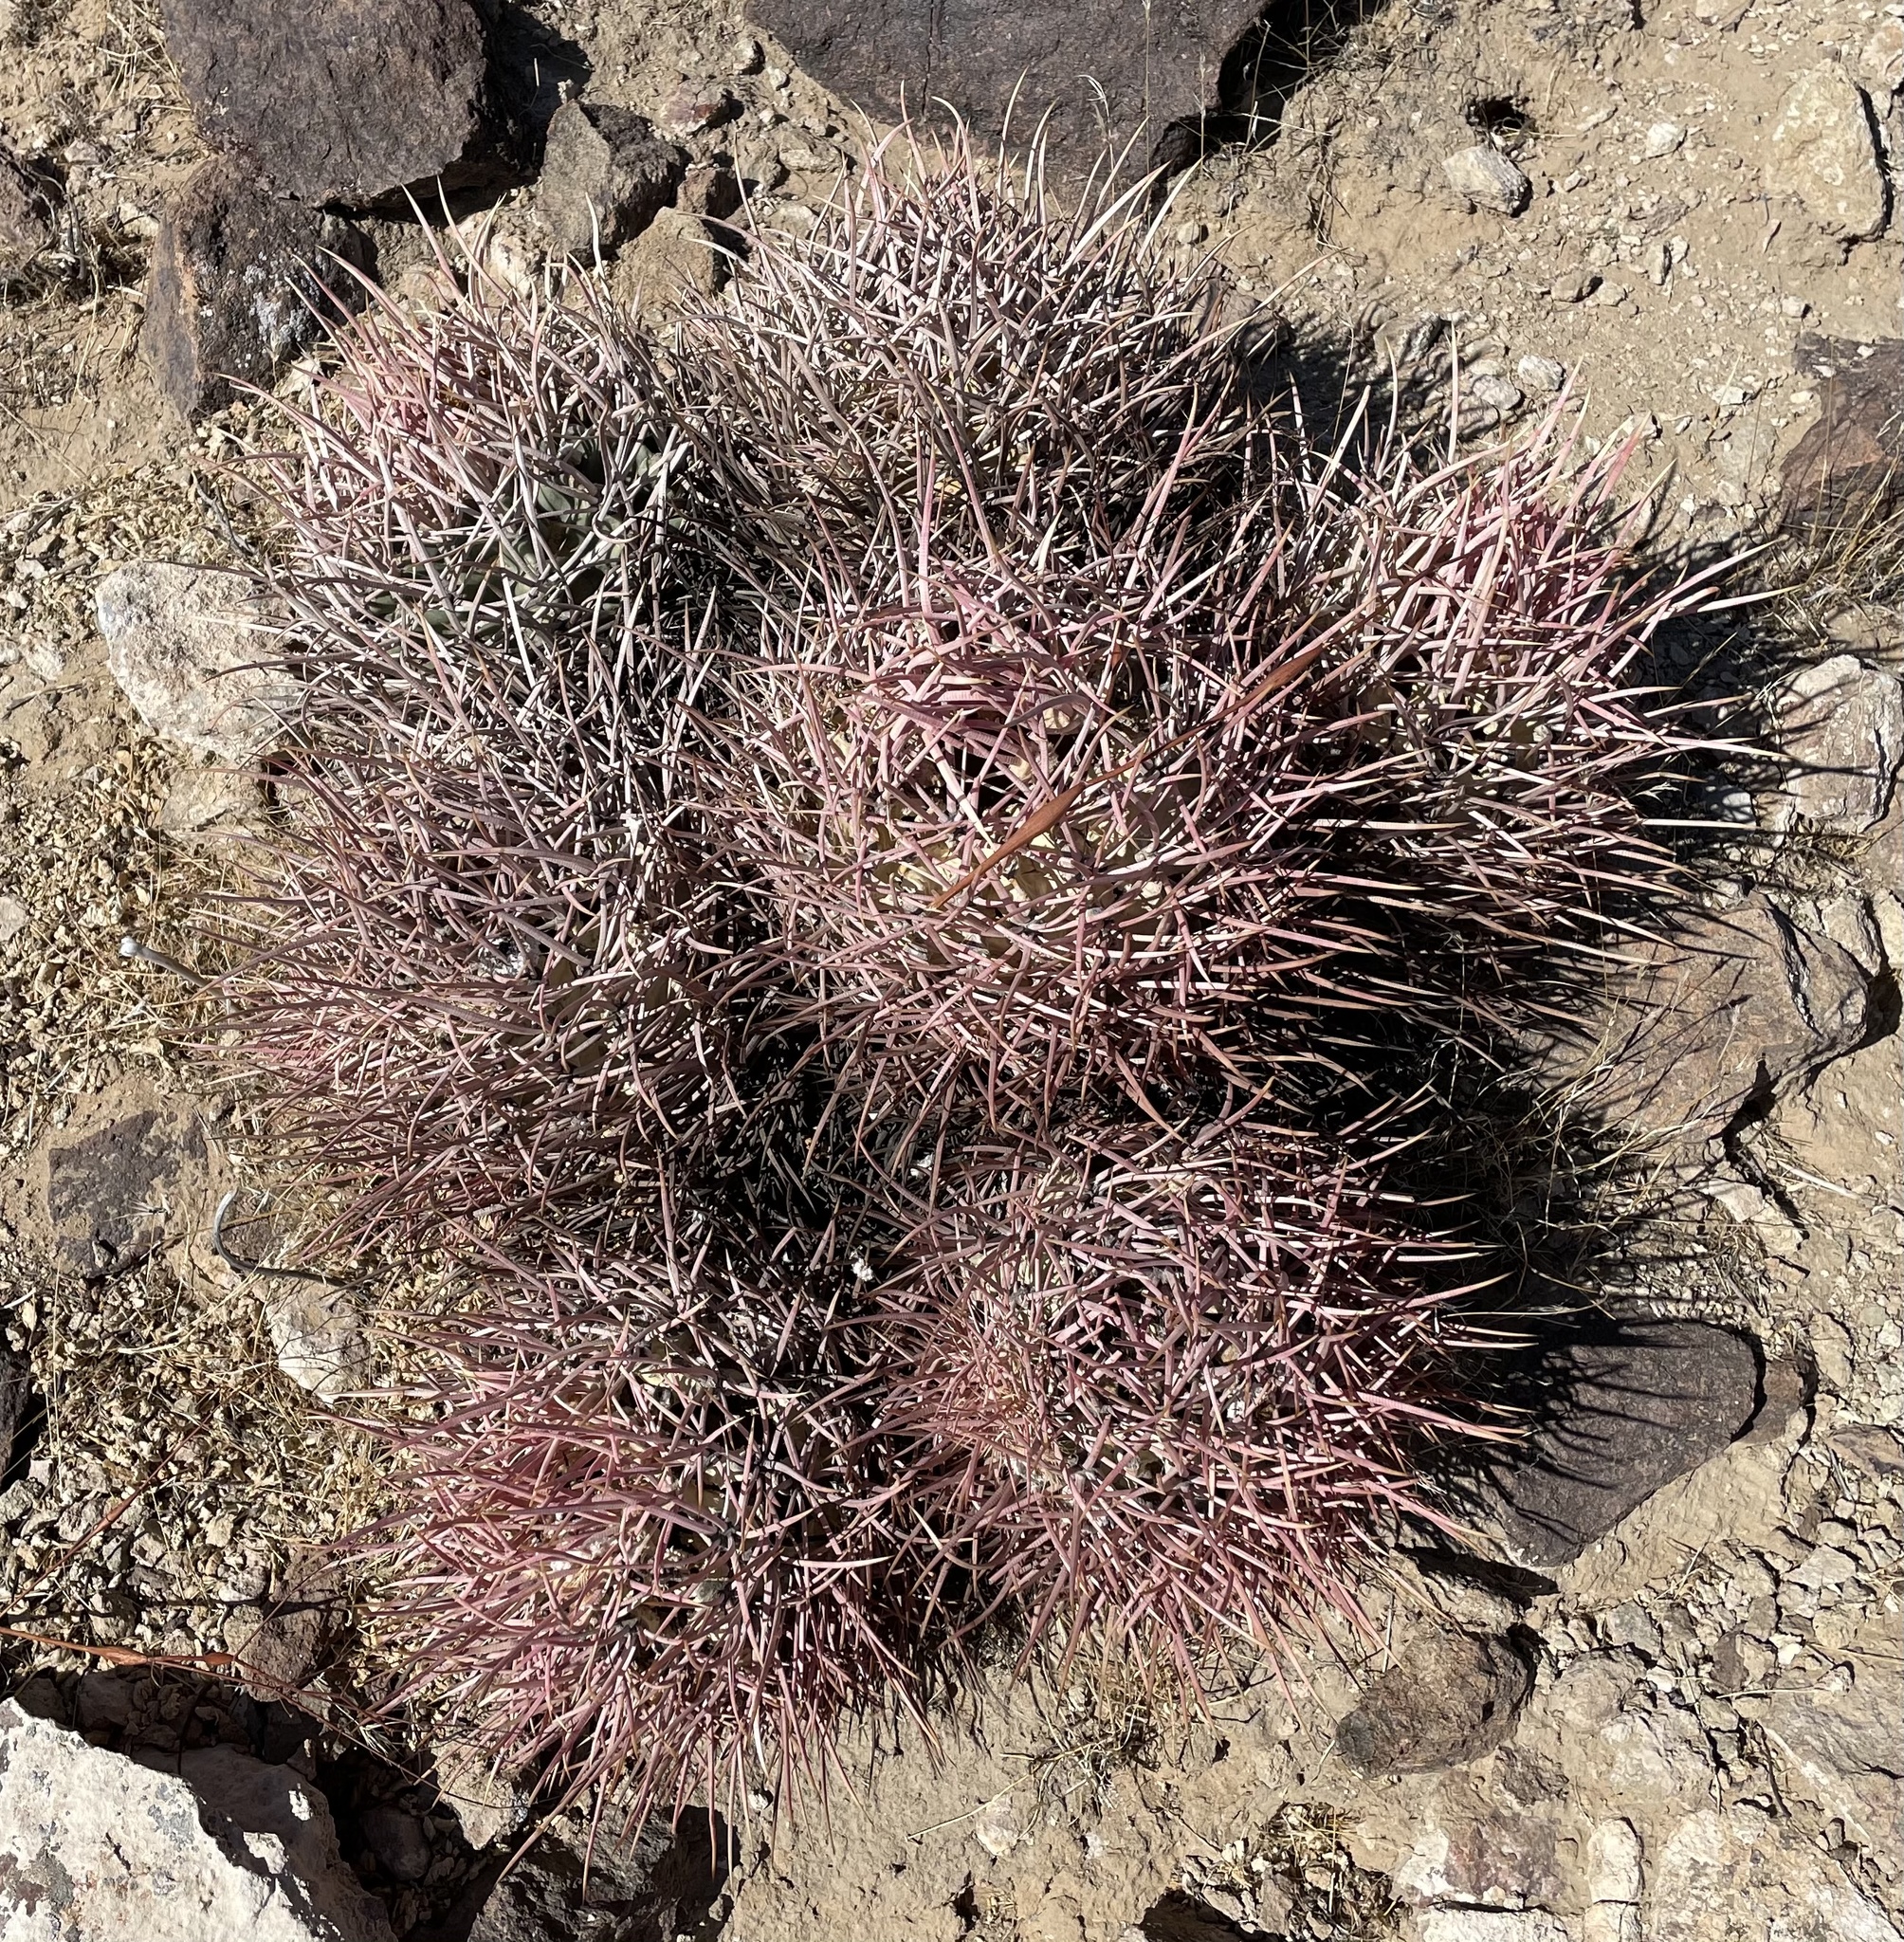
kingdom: Plantae
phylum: Tracheophyta
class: Magnoliopsida
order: Caryophyllales
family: Cactaceae
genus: Echinocactus
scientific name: Echinocactus polycephalus
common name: Cottontop cactus
